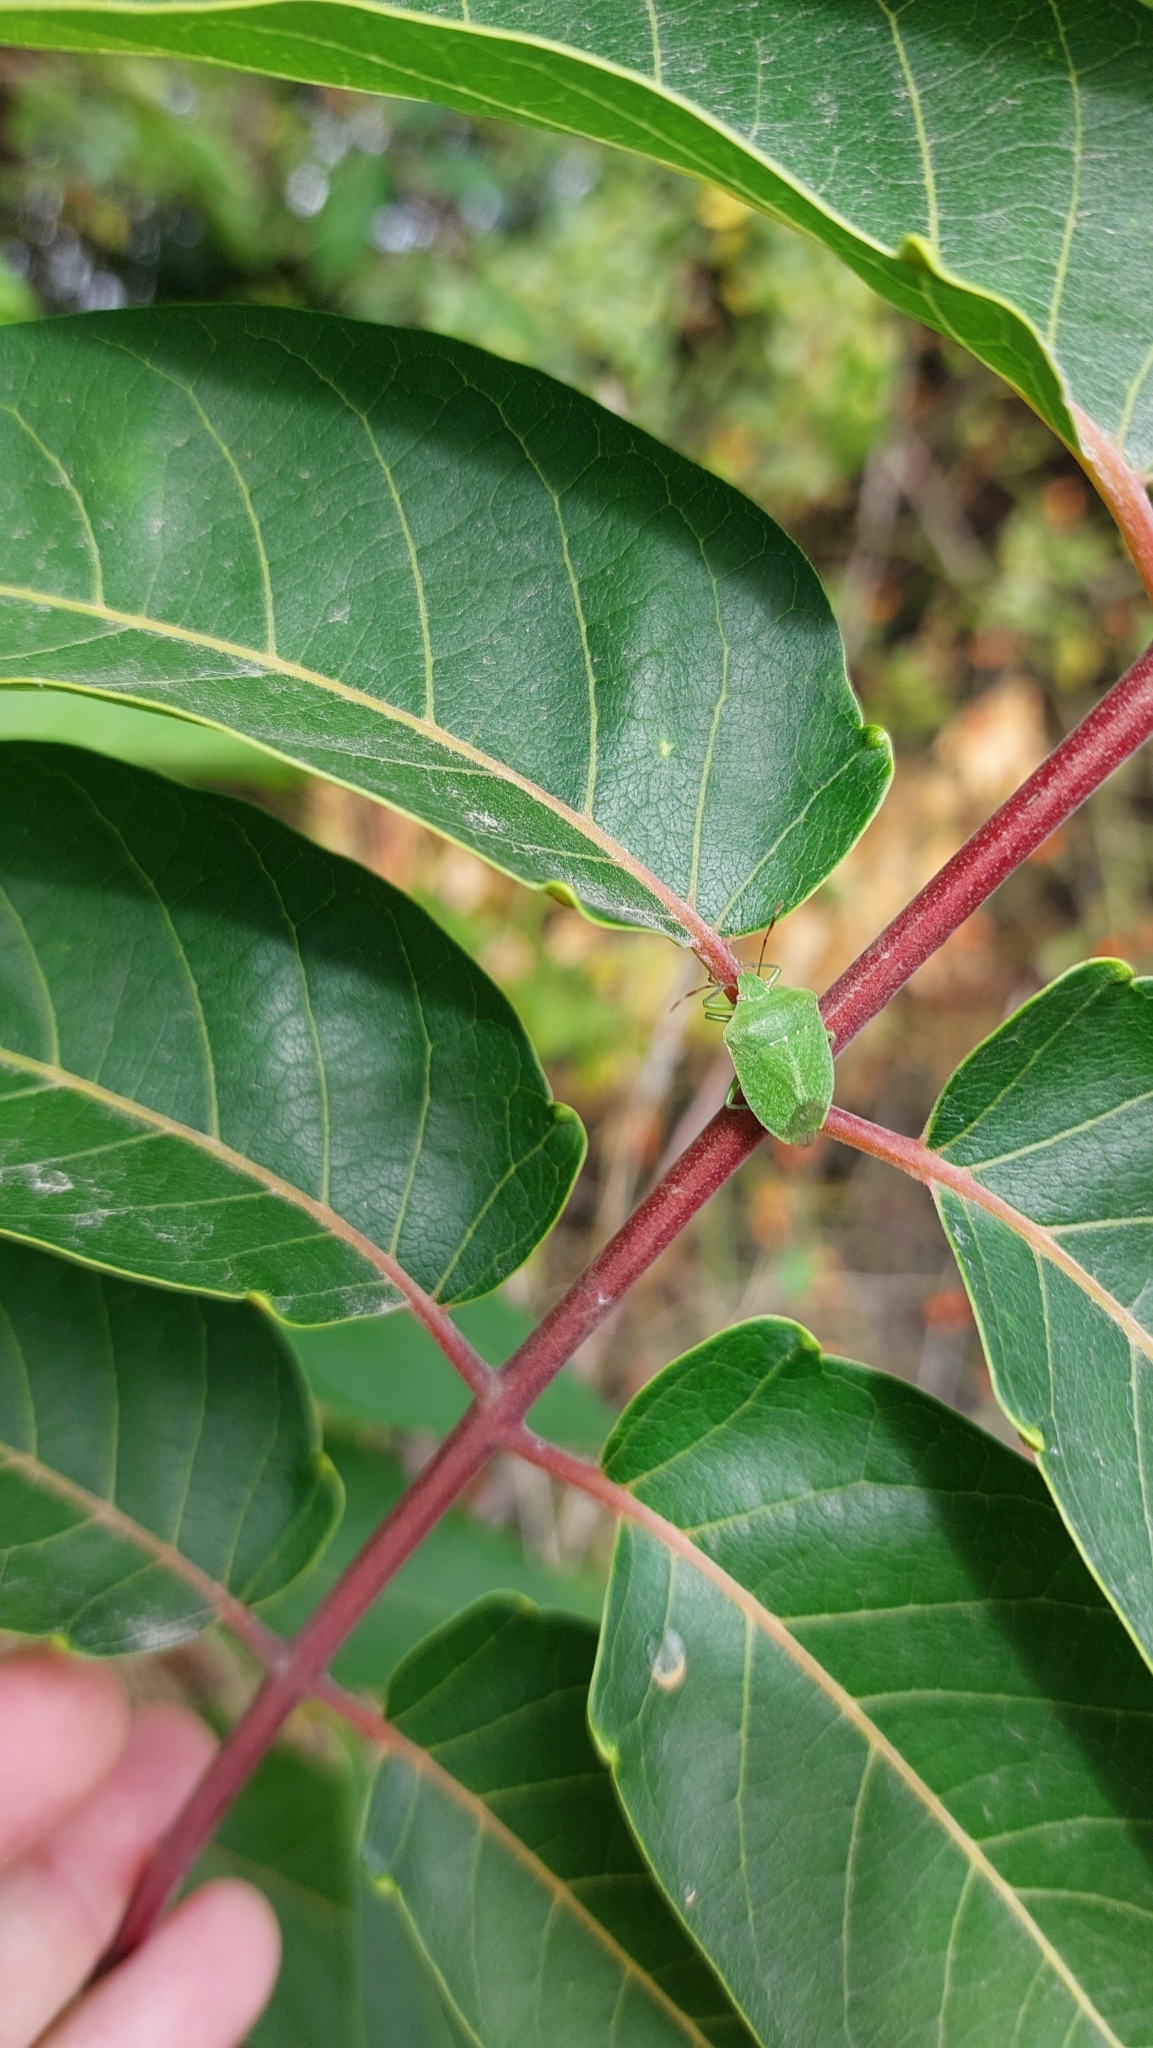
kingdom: Plantae
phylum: Tracheophyta
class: Magnoliopsida
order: Sapindales
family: Simaroubaceae
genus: Ailanthus
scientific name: Ailanthus altissima
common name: Tree-of-heaven
